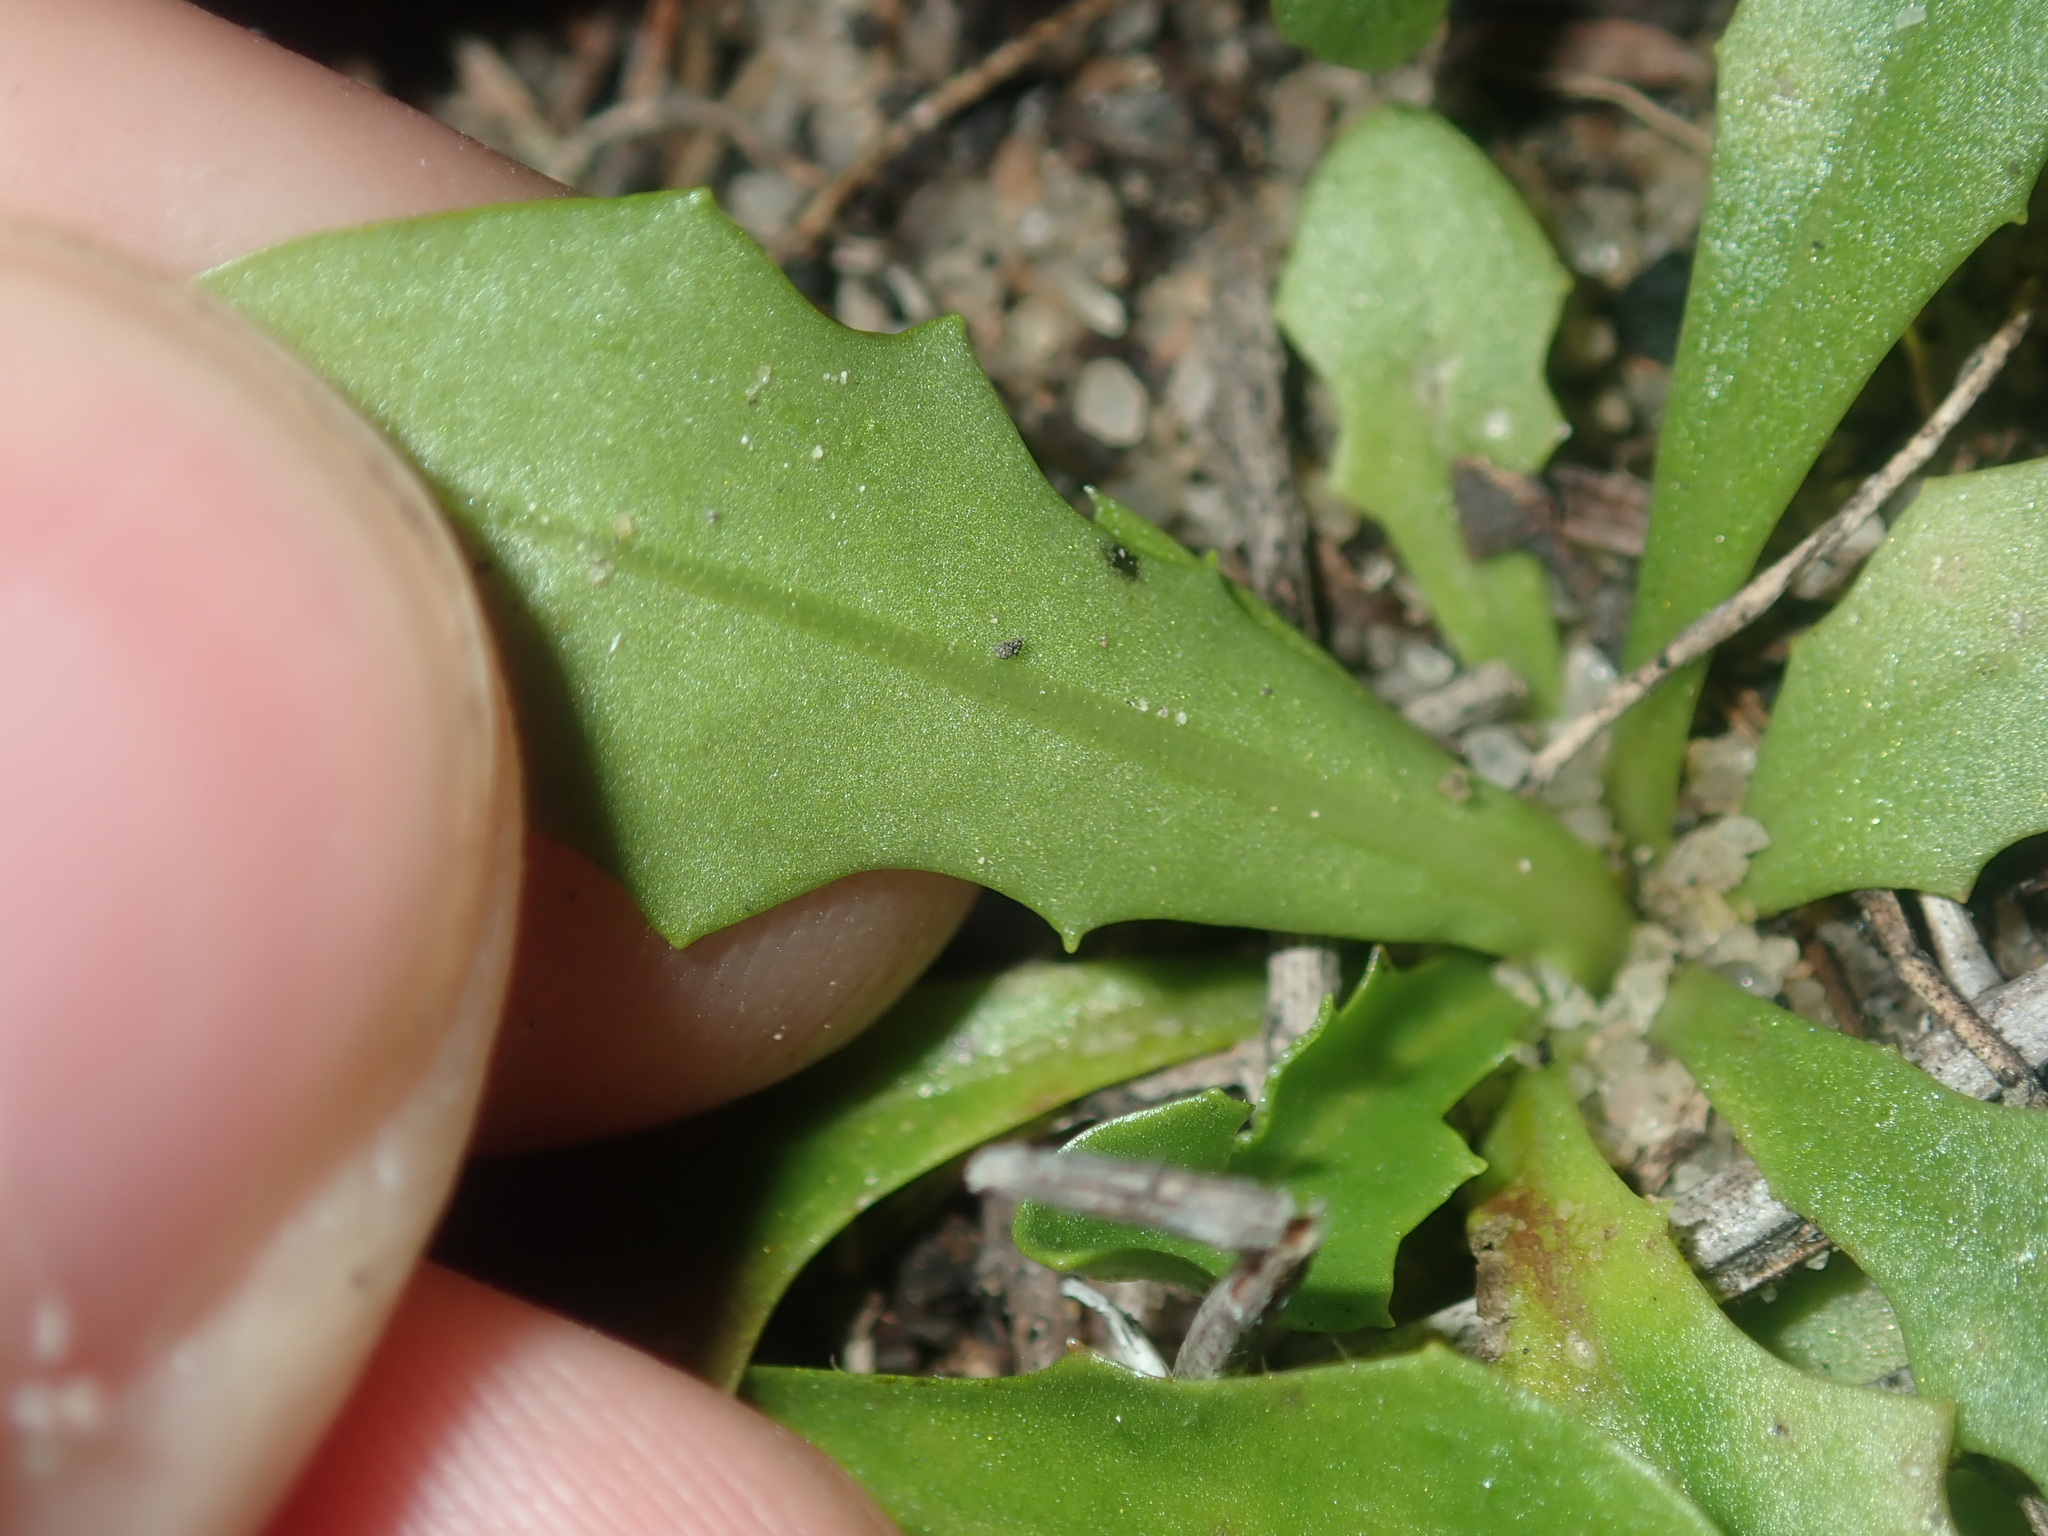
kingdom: Plantae
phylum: Tracheophyta
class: Magnoliopsida
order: Asterales
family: Asteraceae
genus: Hypochaeris
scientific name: Hypochaeris glabra
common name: Smooth catsear
